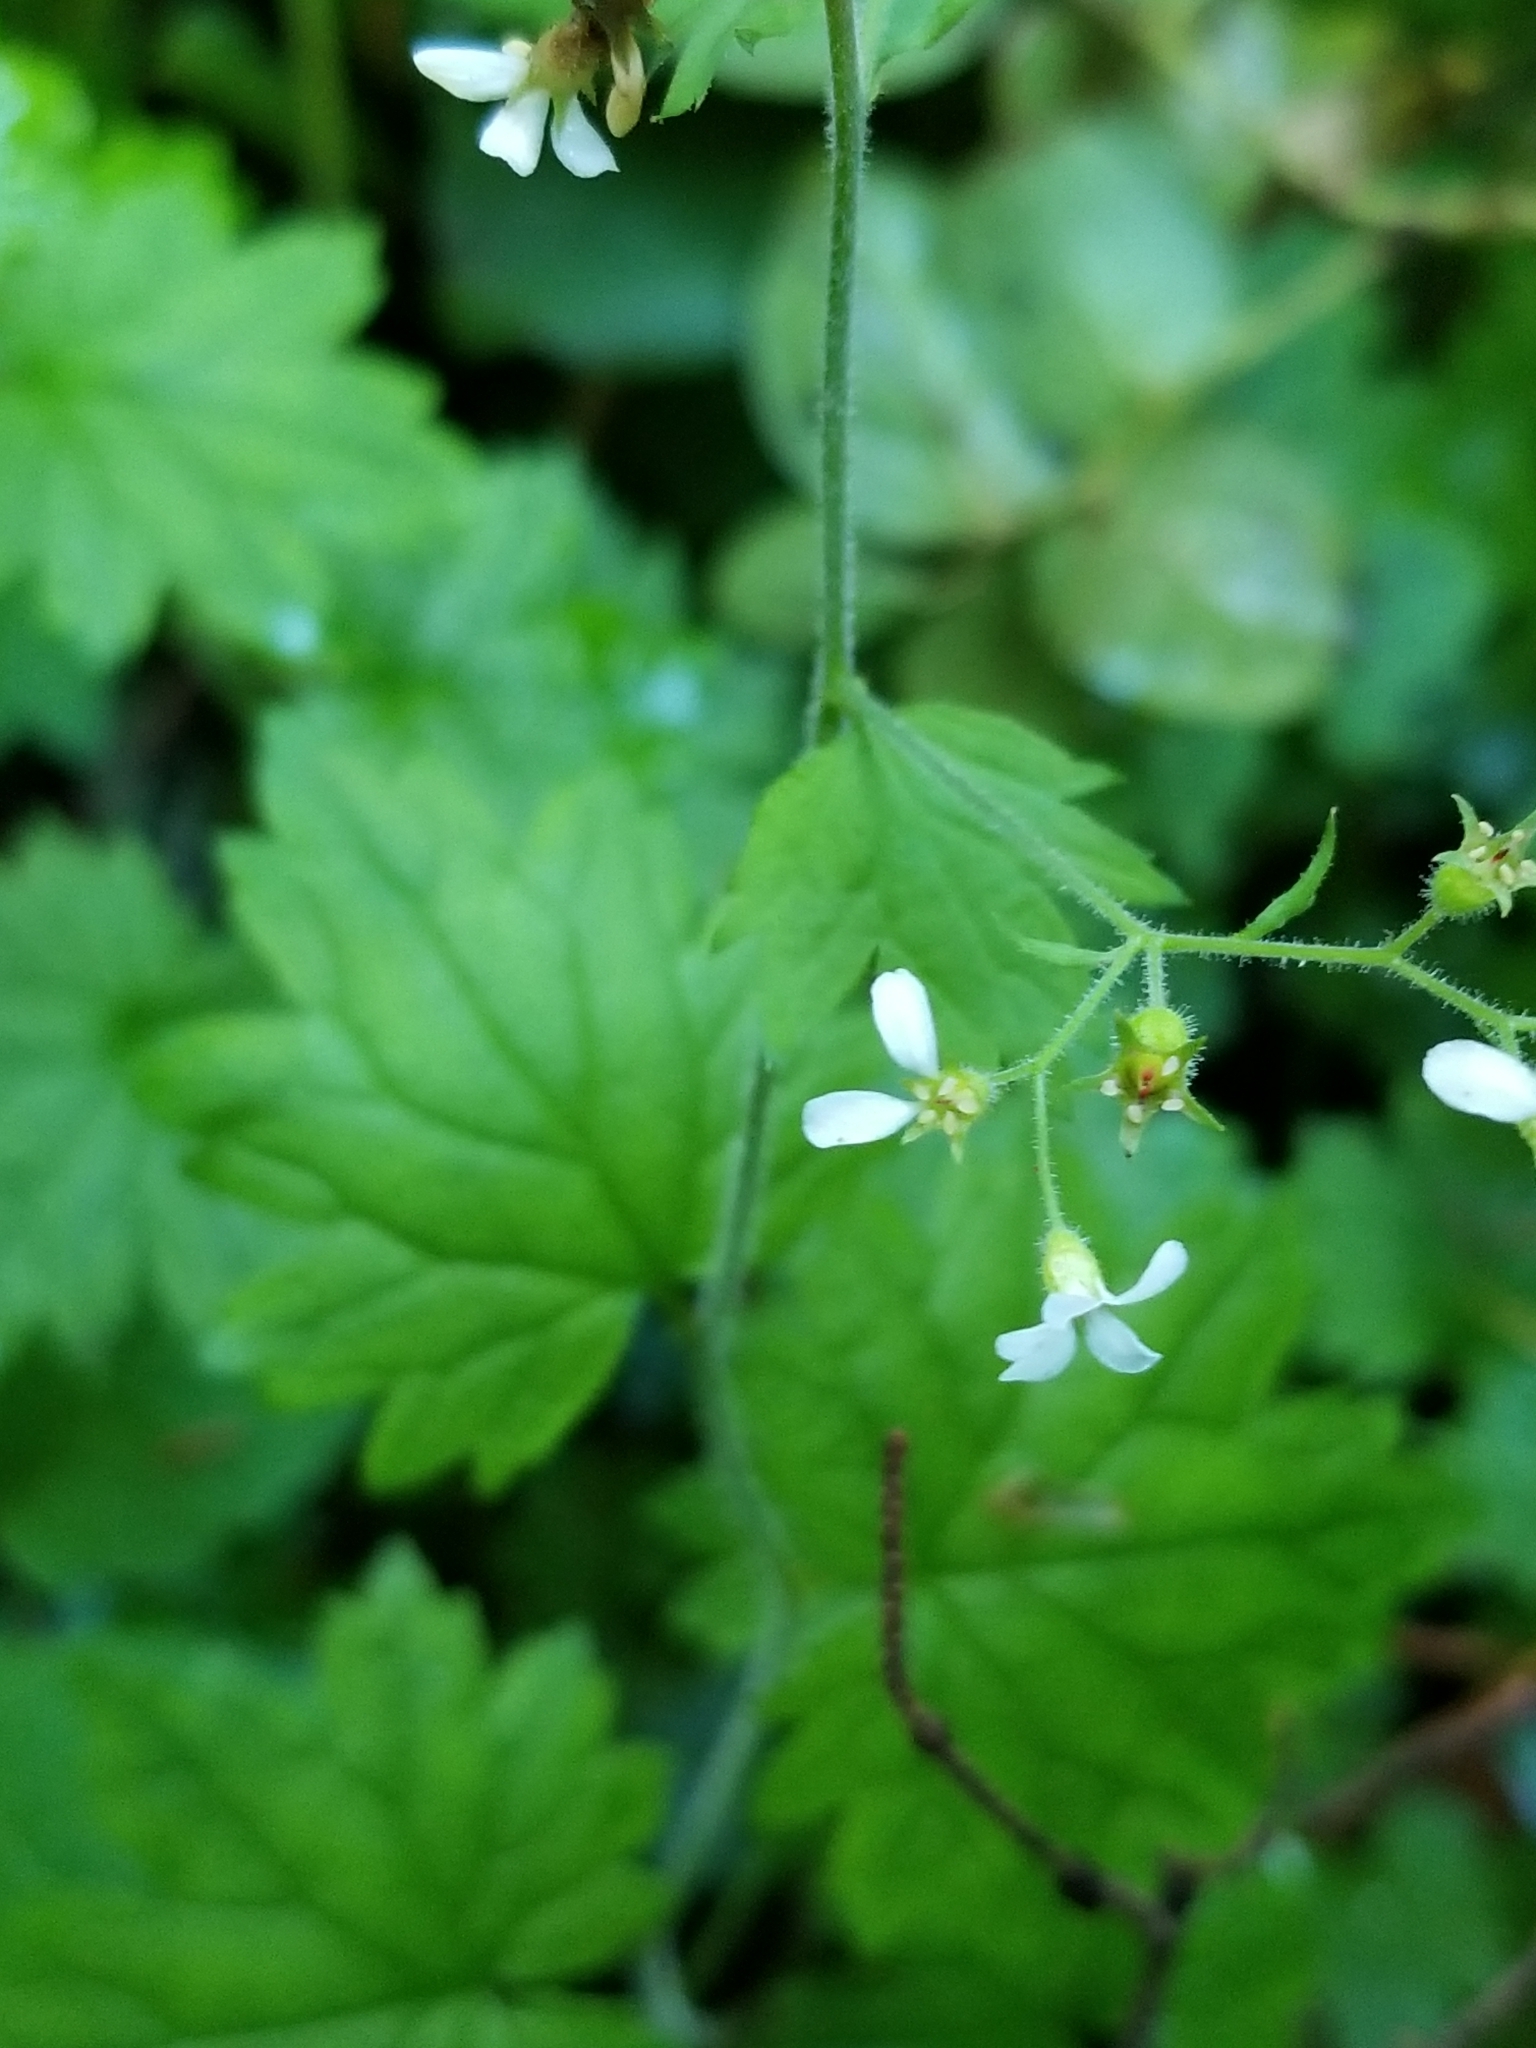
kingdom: Plantae
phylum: Tracheophyta
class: Magnoliopsida
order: Saxifragales
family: Saxifragaceae
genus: Boykinia
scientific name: Boykinia occidentalis
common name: Coast boykinia
